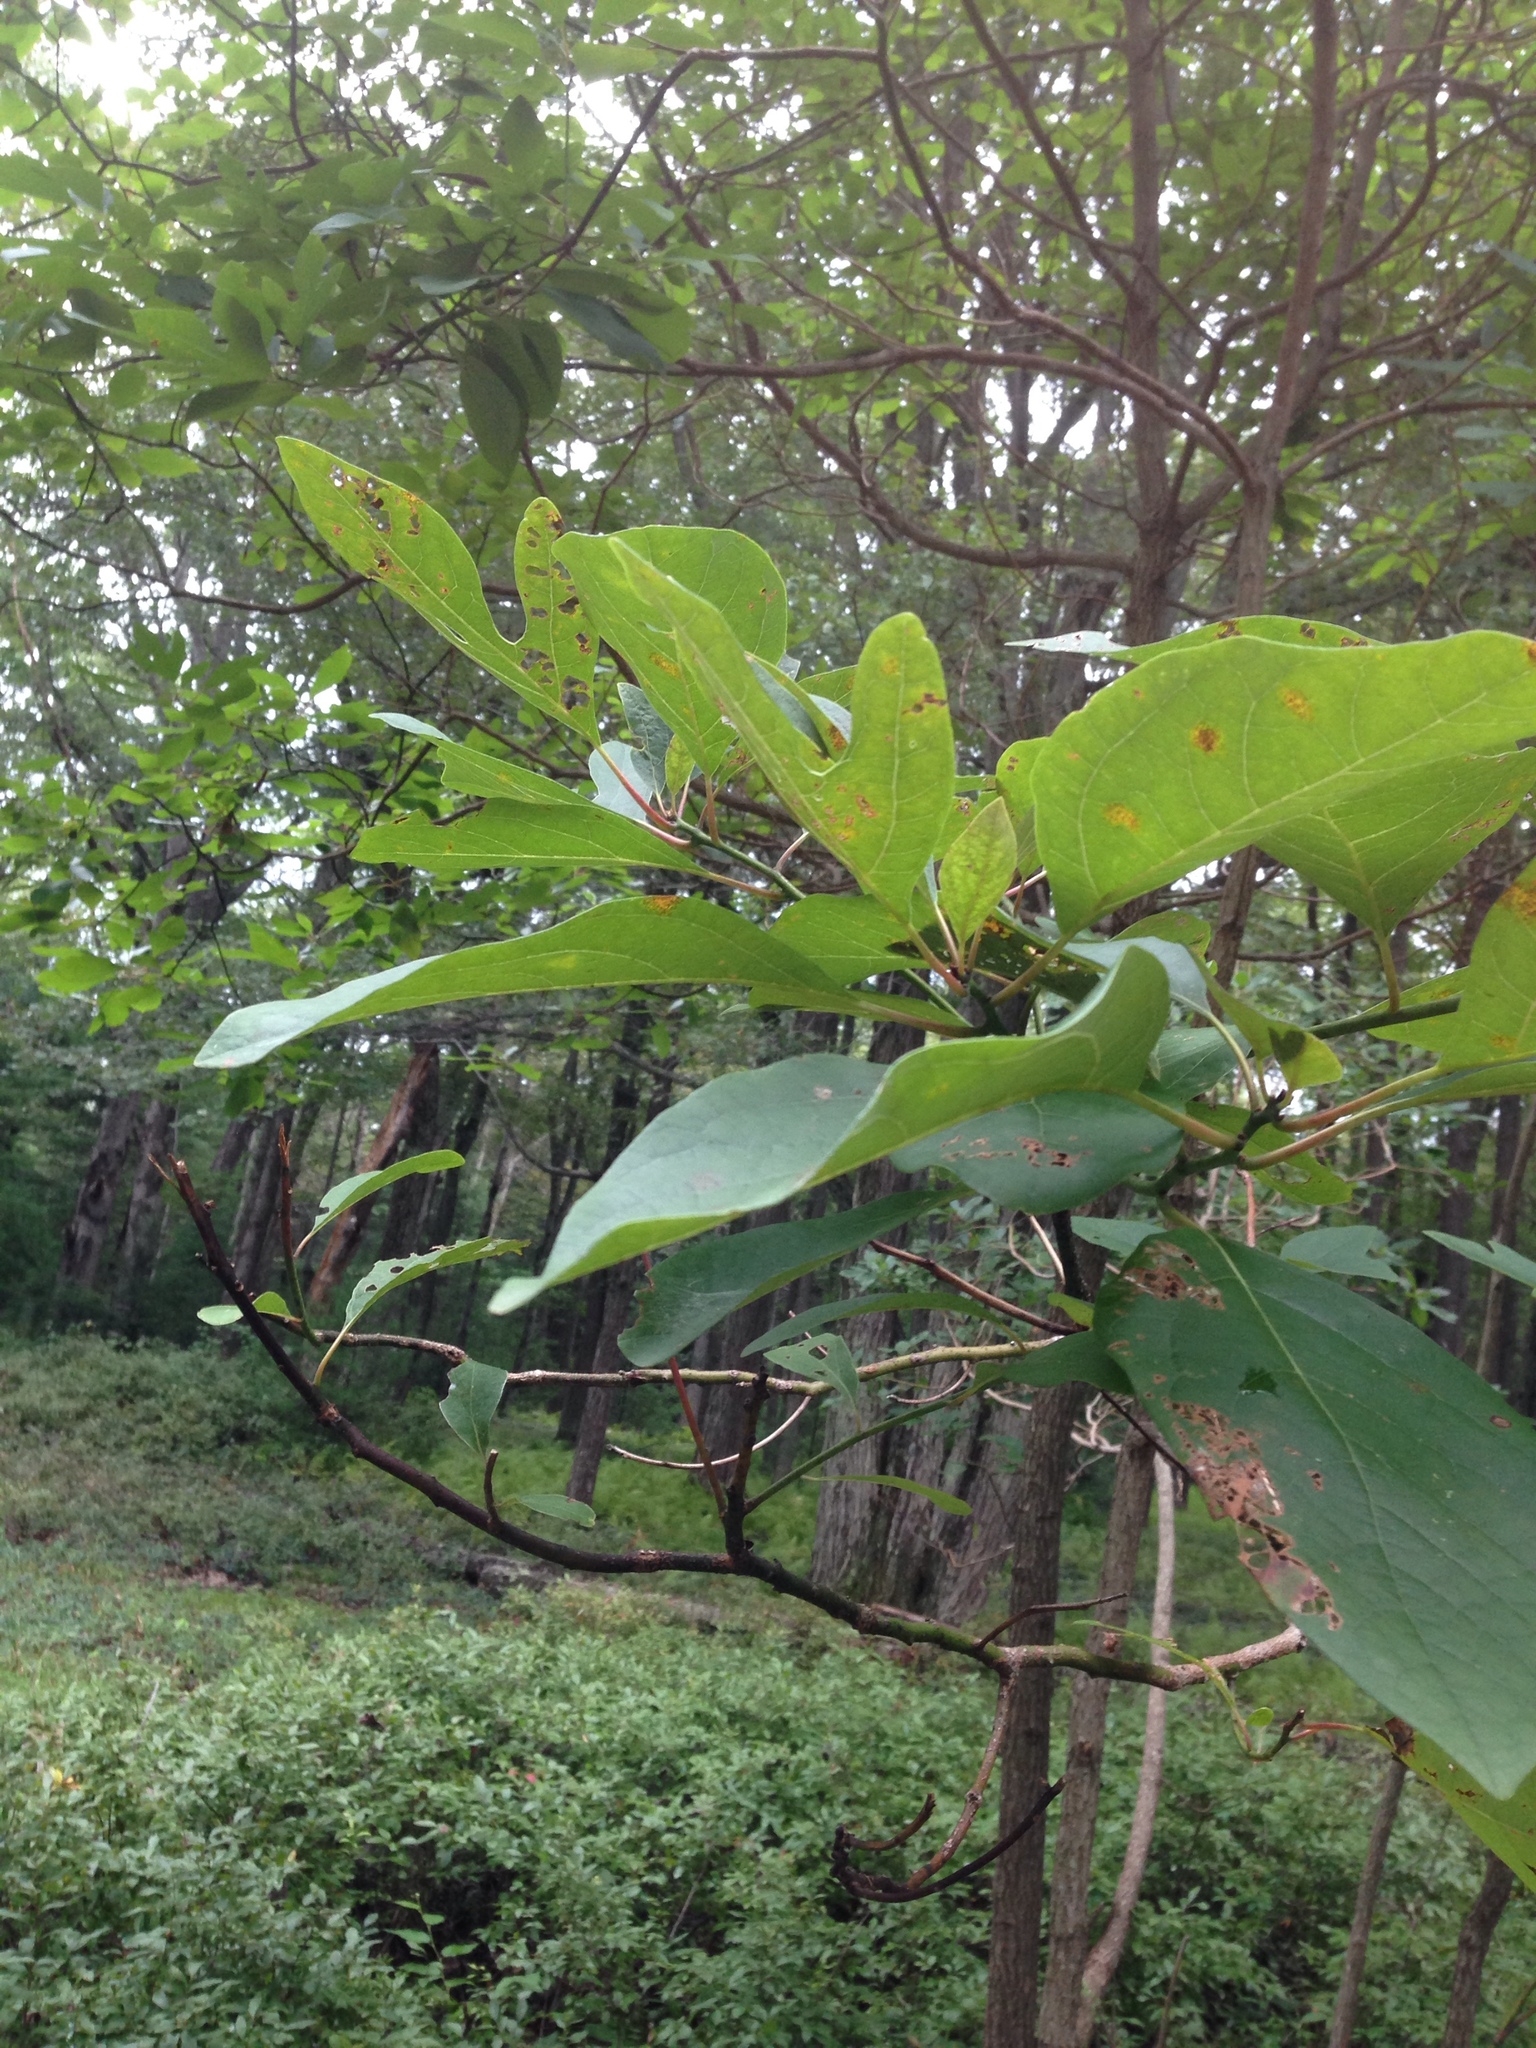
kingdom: Plantae
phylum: Tracheophyta
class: Magnoliopsida
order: Laurales
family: Lauraceae
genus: Sassafras
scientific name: Sassafras albidum
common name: Sassafras
